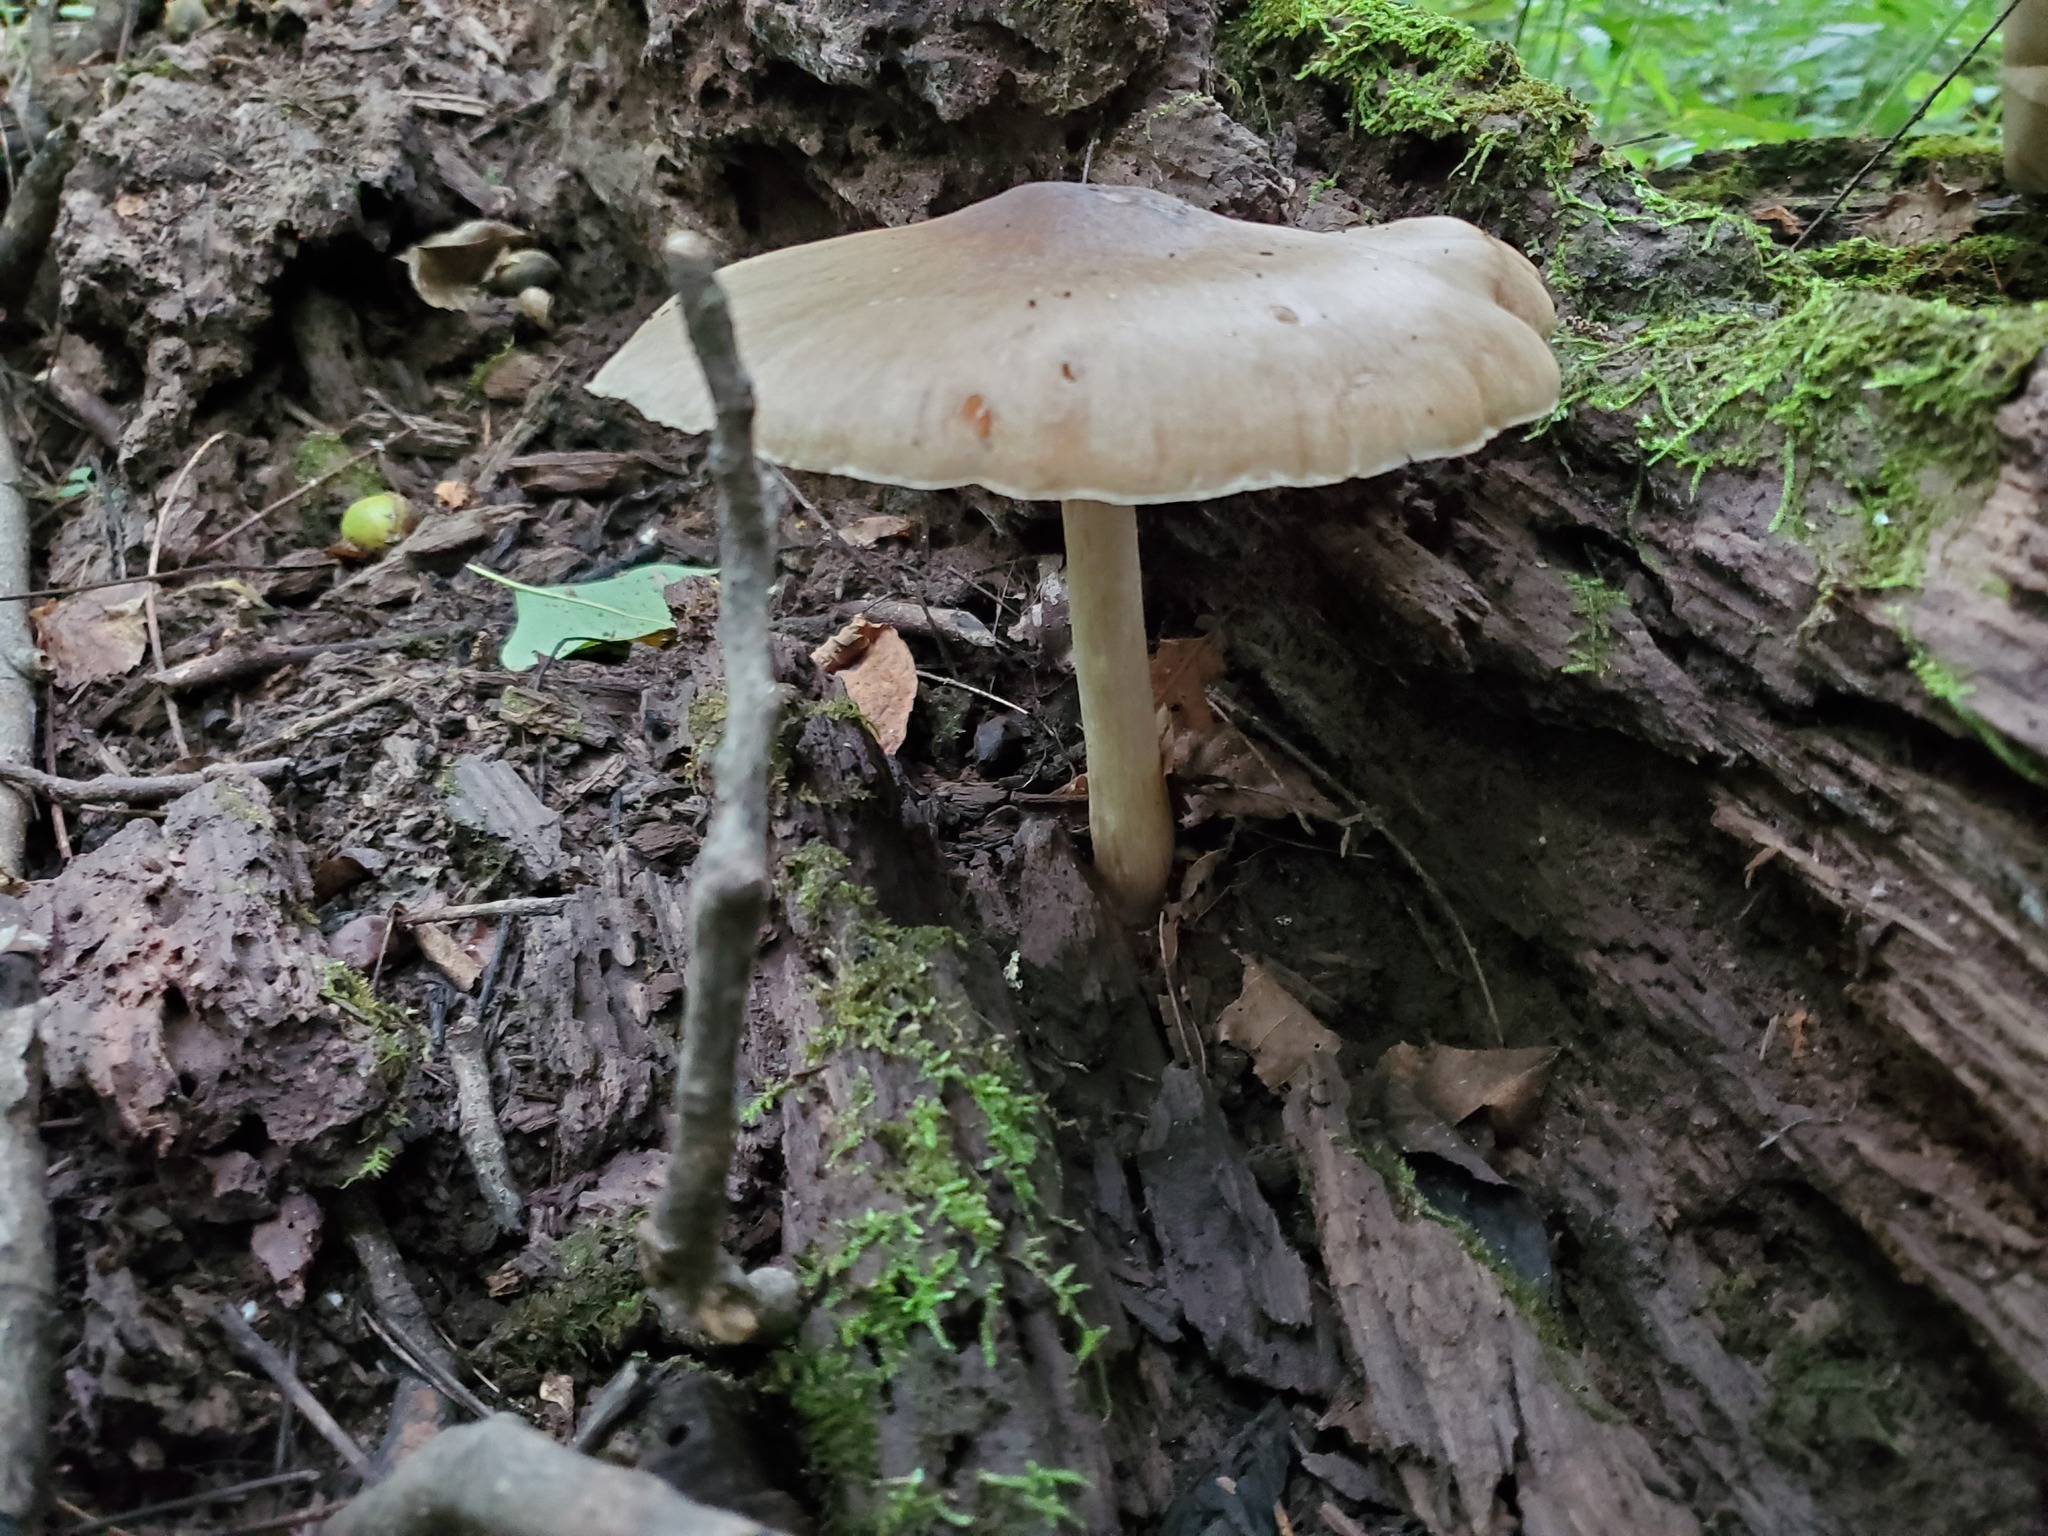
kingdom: Fungi
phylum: Basidiomycota
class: Agaricomycetes
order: Agaricales
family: Pluteaceae
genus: Pluteus
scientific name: Pluteus cervinus
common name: Deer shield
